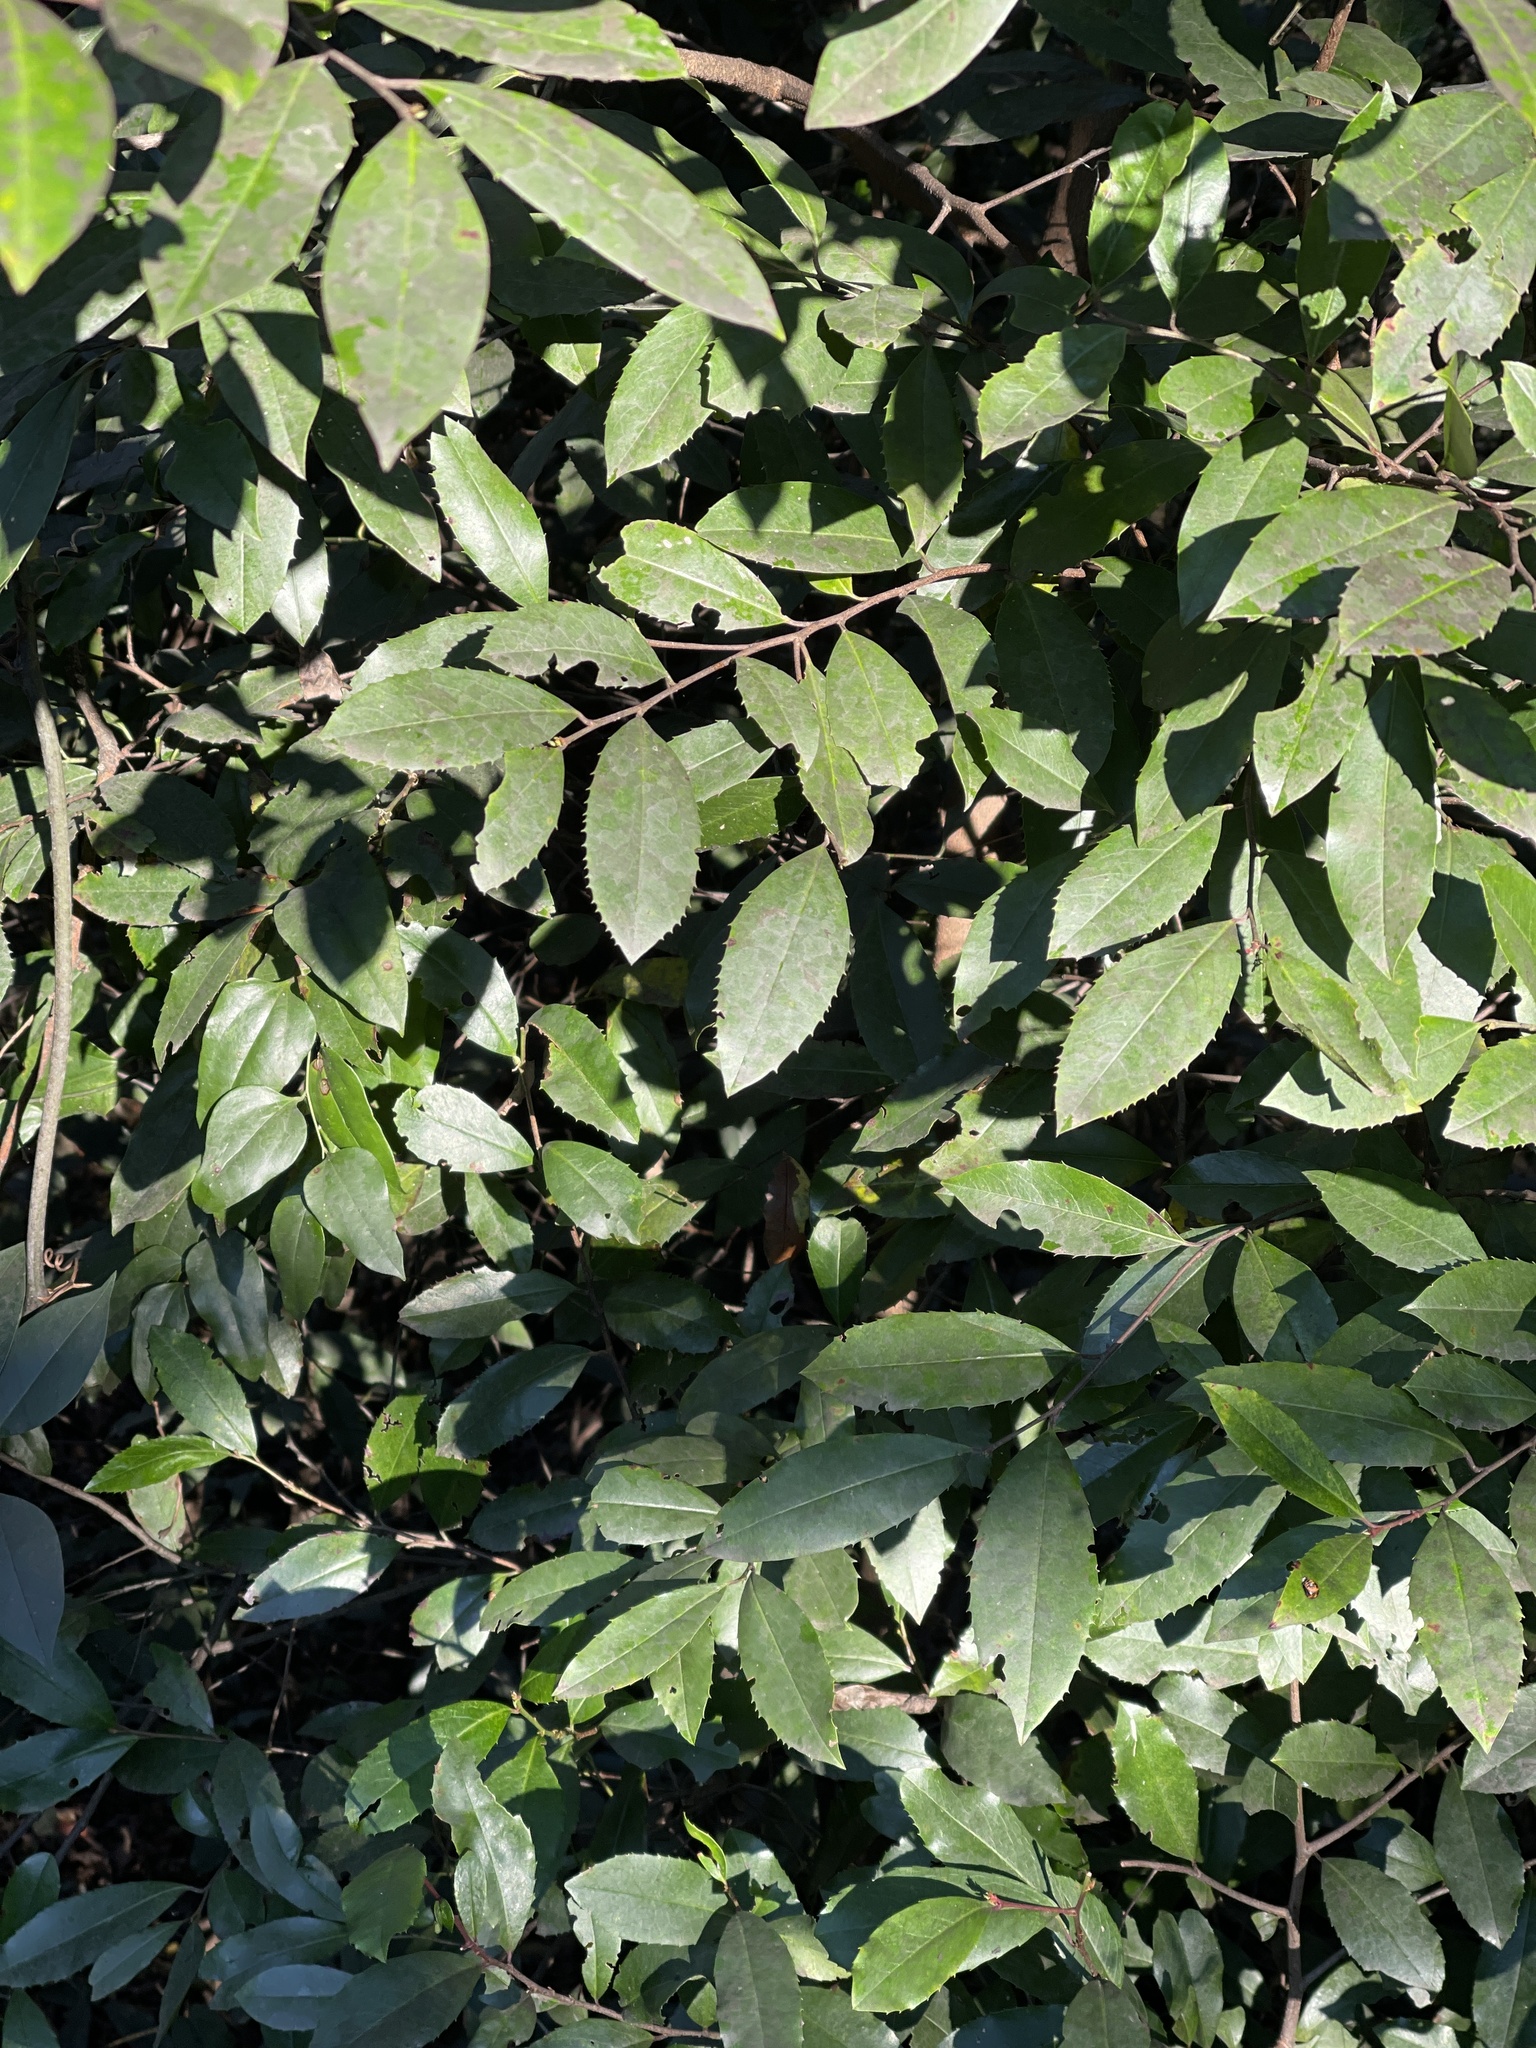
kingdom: Plantae
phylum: Tracheophyta
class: Magnoliopsida
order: Rosales
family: Rosaceae
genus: Prunus
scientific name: Prunus caroliniana
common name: Carolina laurel cherry
